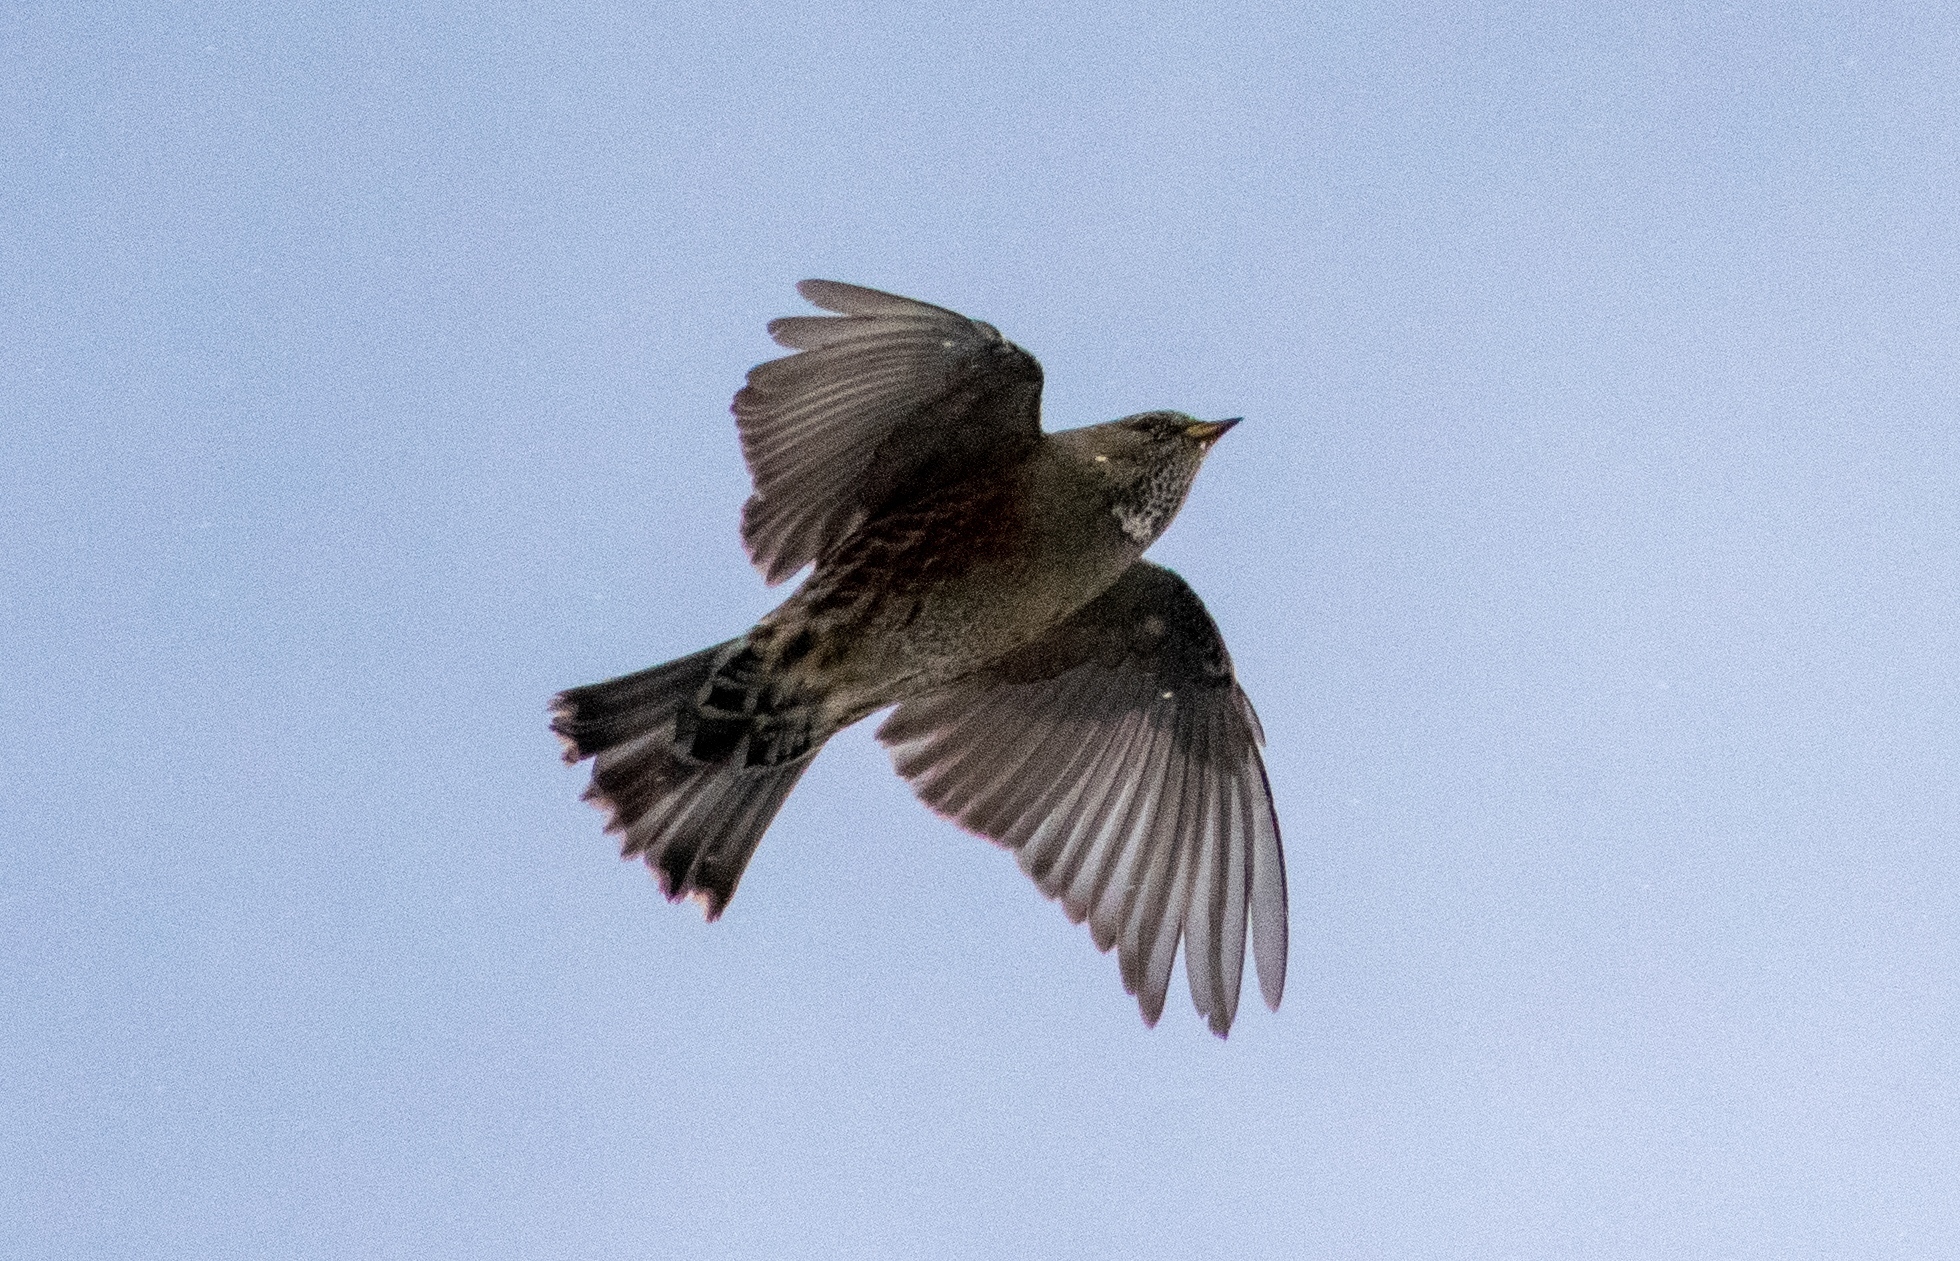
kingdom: Animalia
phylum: Chordata
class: Aves
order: Passeriformes
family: Prunellidae
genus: Prunella
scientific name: Prunella collaris
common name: Alpine accentor
